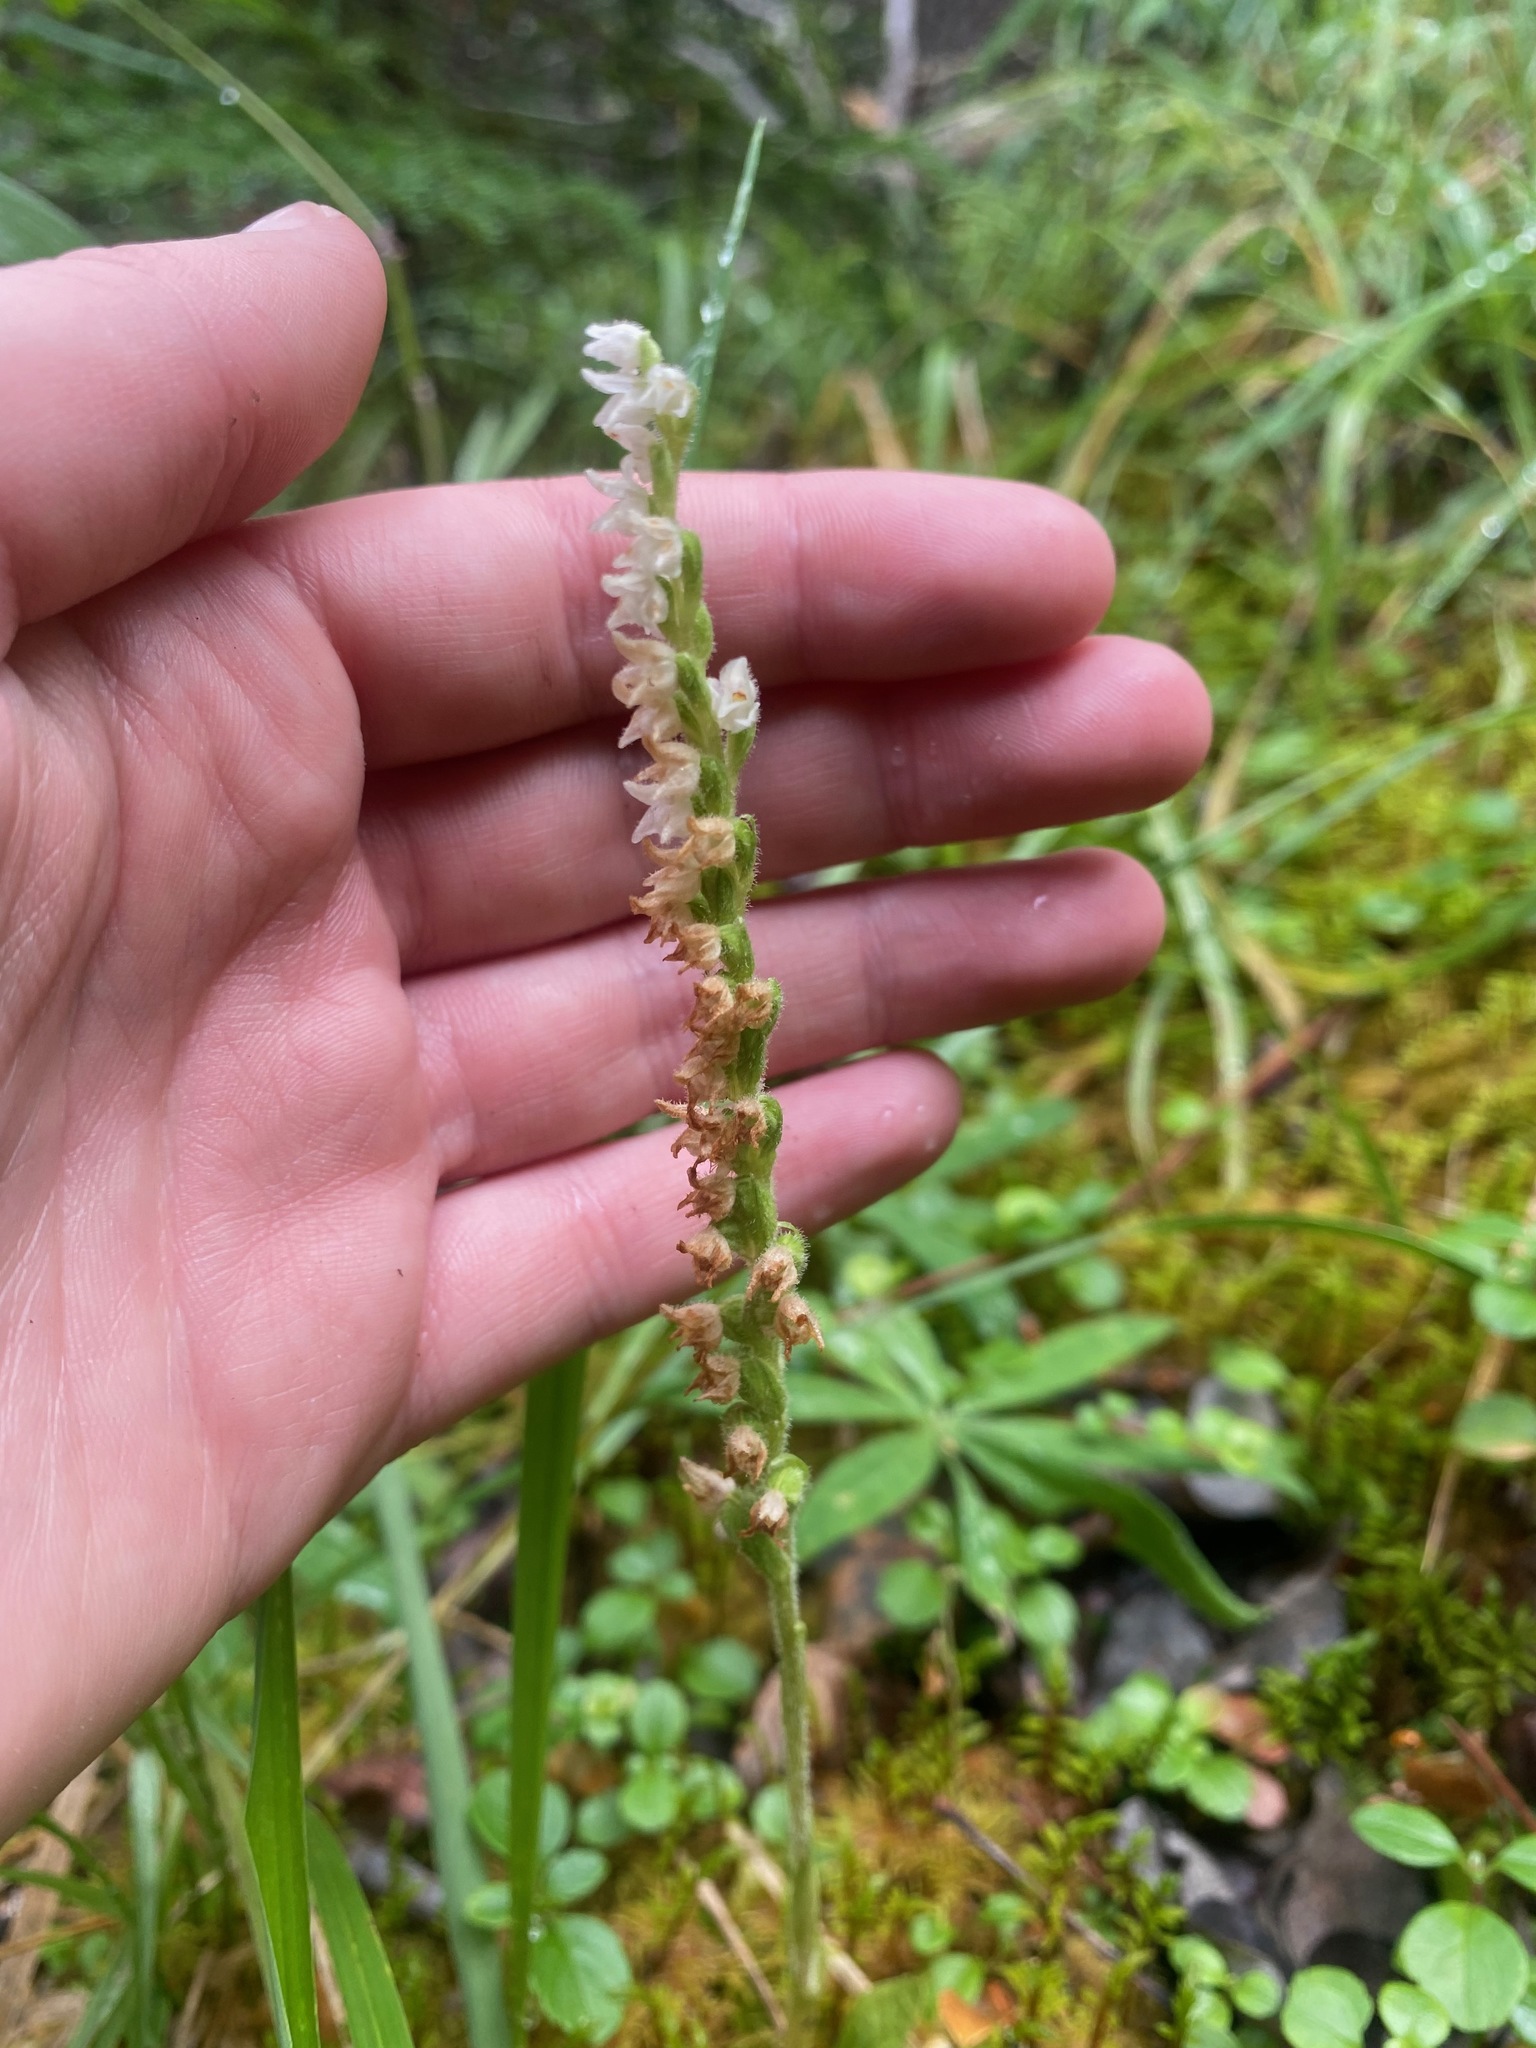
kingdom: Plantae
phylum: Tracheophyta
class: Liliopsida
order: Asparagales
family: Orchidaceae
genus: Goodyera
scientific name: Goodyera repens
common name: Creeping lady's-tresses
